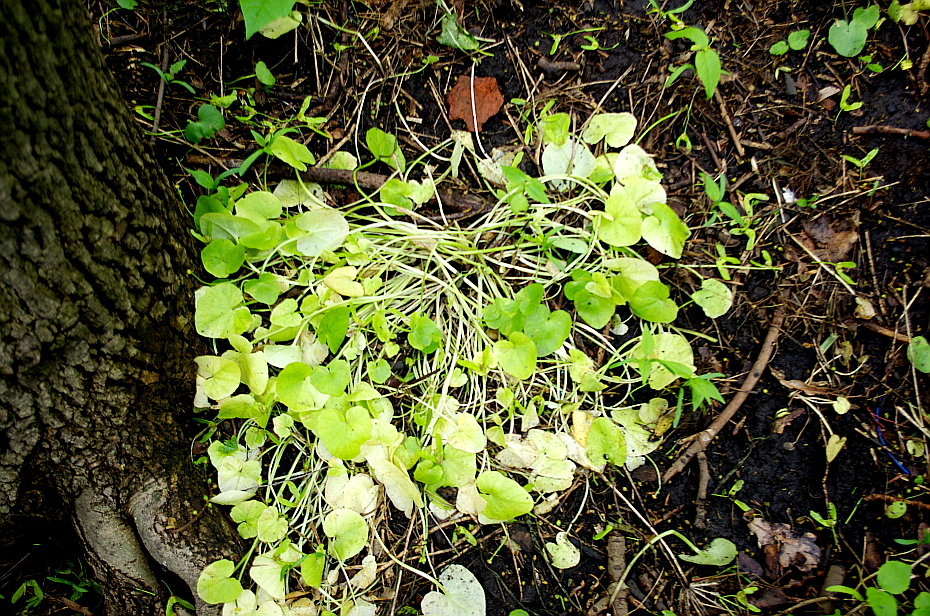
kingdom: Plantae
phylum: Tracheophyta
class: Magnoliopsida
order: Ranunculales
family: Ranunculaceae
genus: Ficaria
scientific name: Ficaria verna
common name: Lesser celandine
